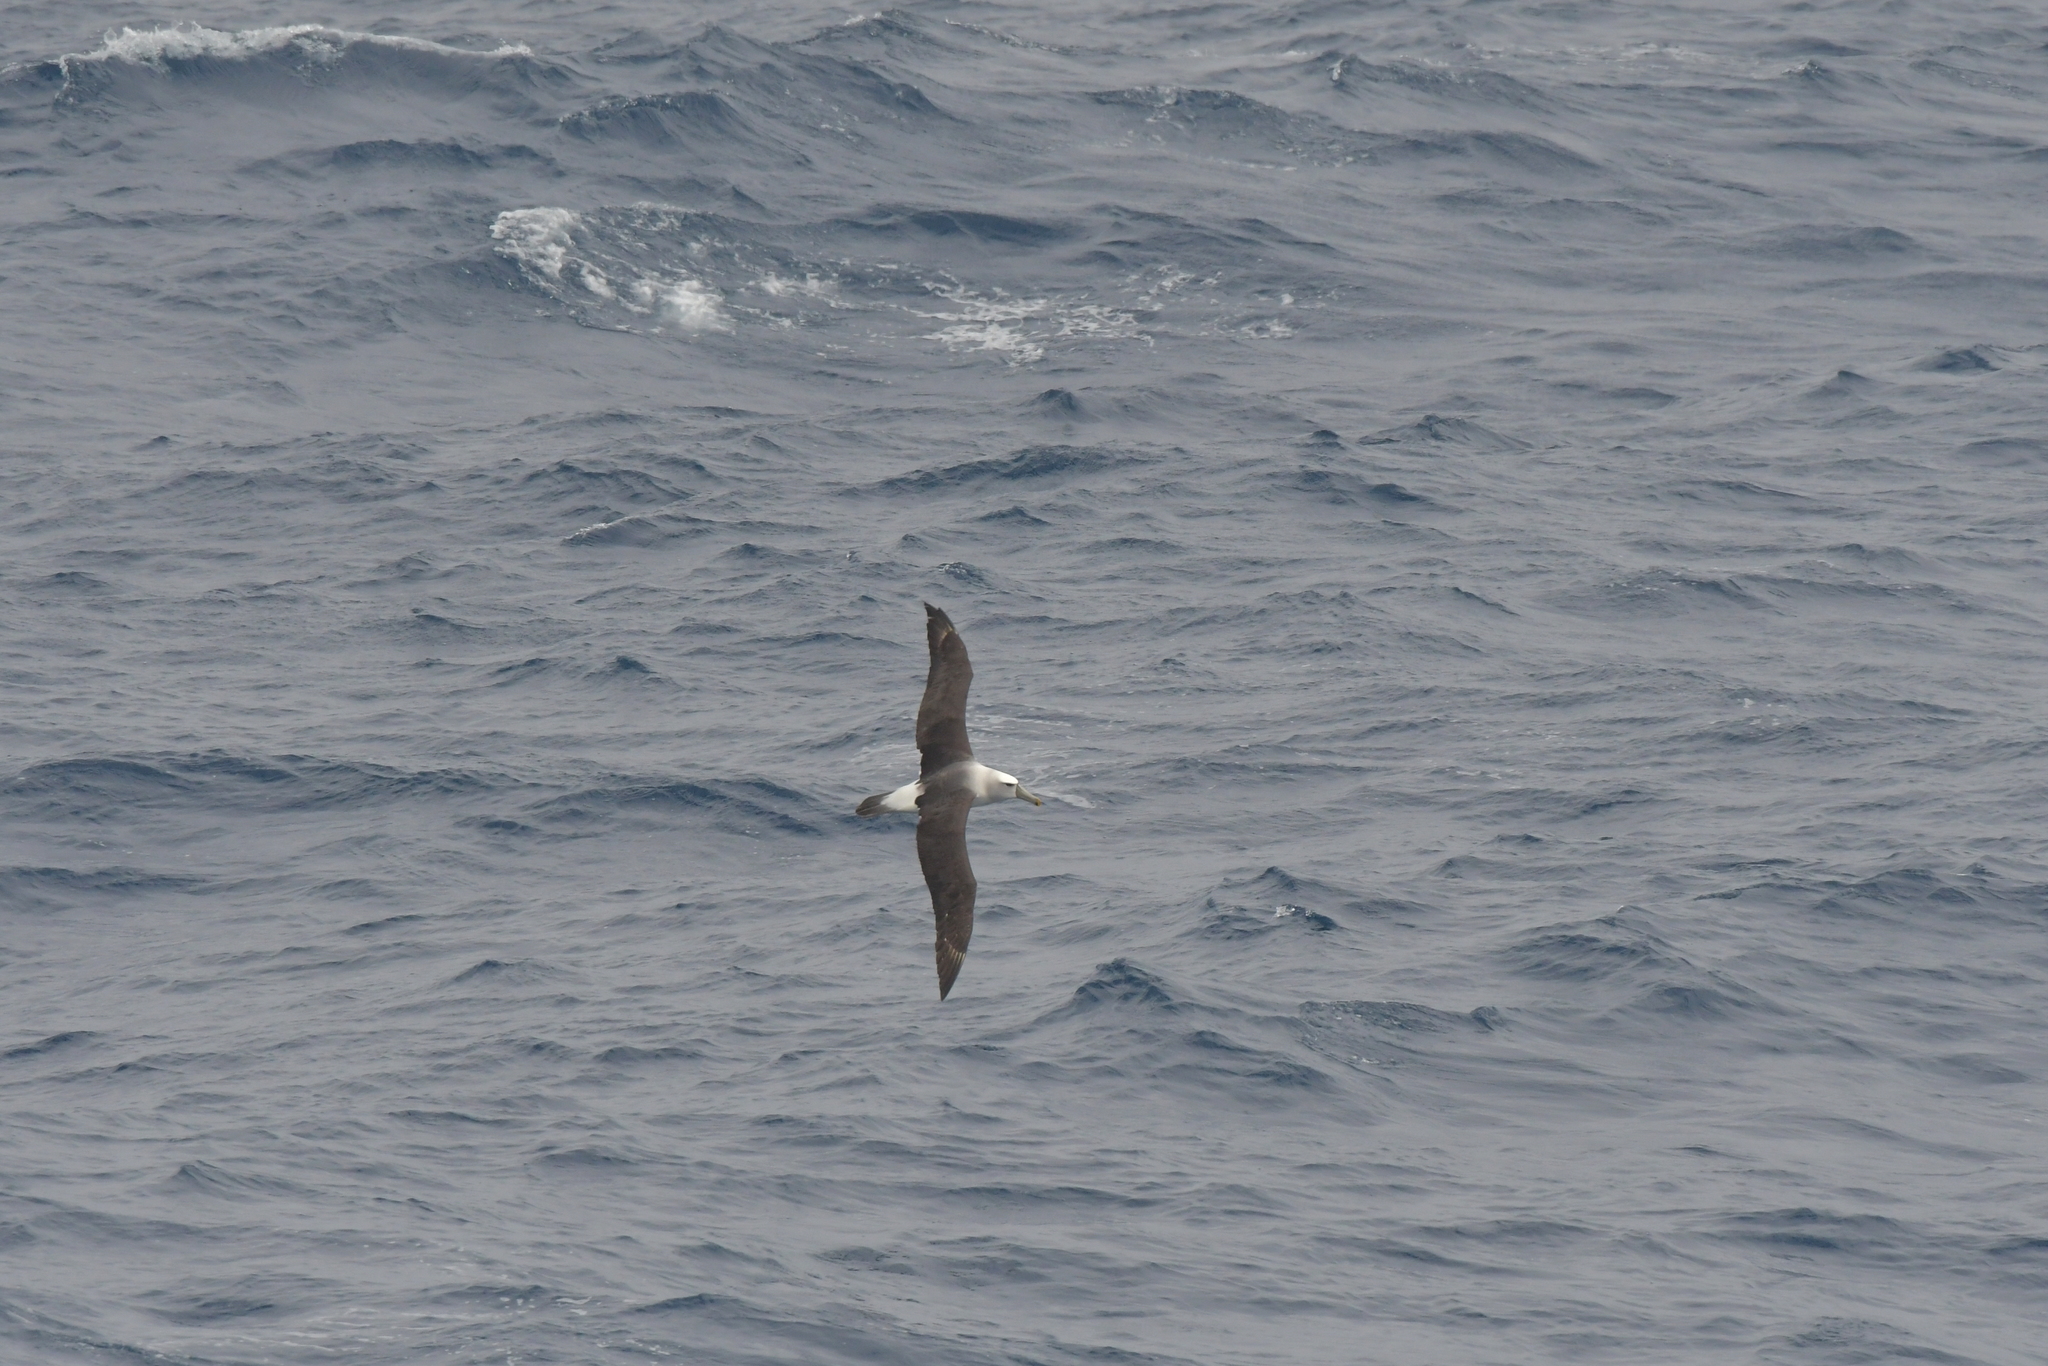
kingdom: Animalia
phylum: Chordata
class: Aves
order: Procellariiformes
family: Diomedeidae
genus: Thalassarche
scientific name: Thalassarche cauta
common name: Shy albatross
